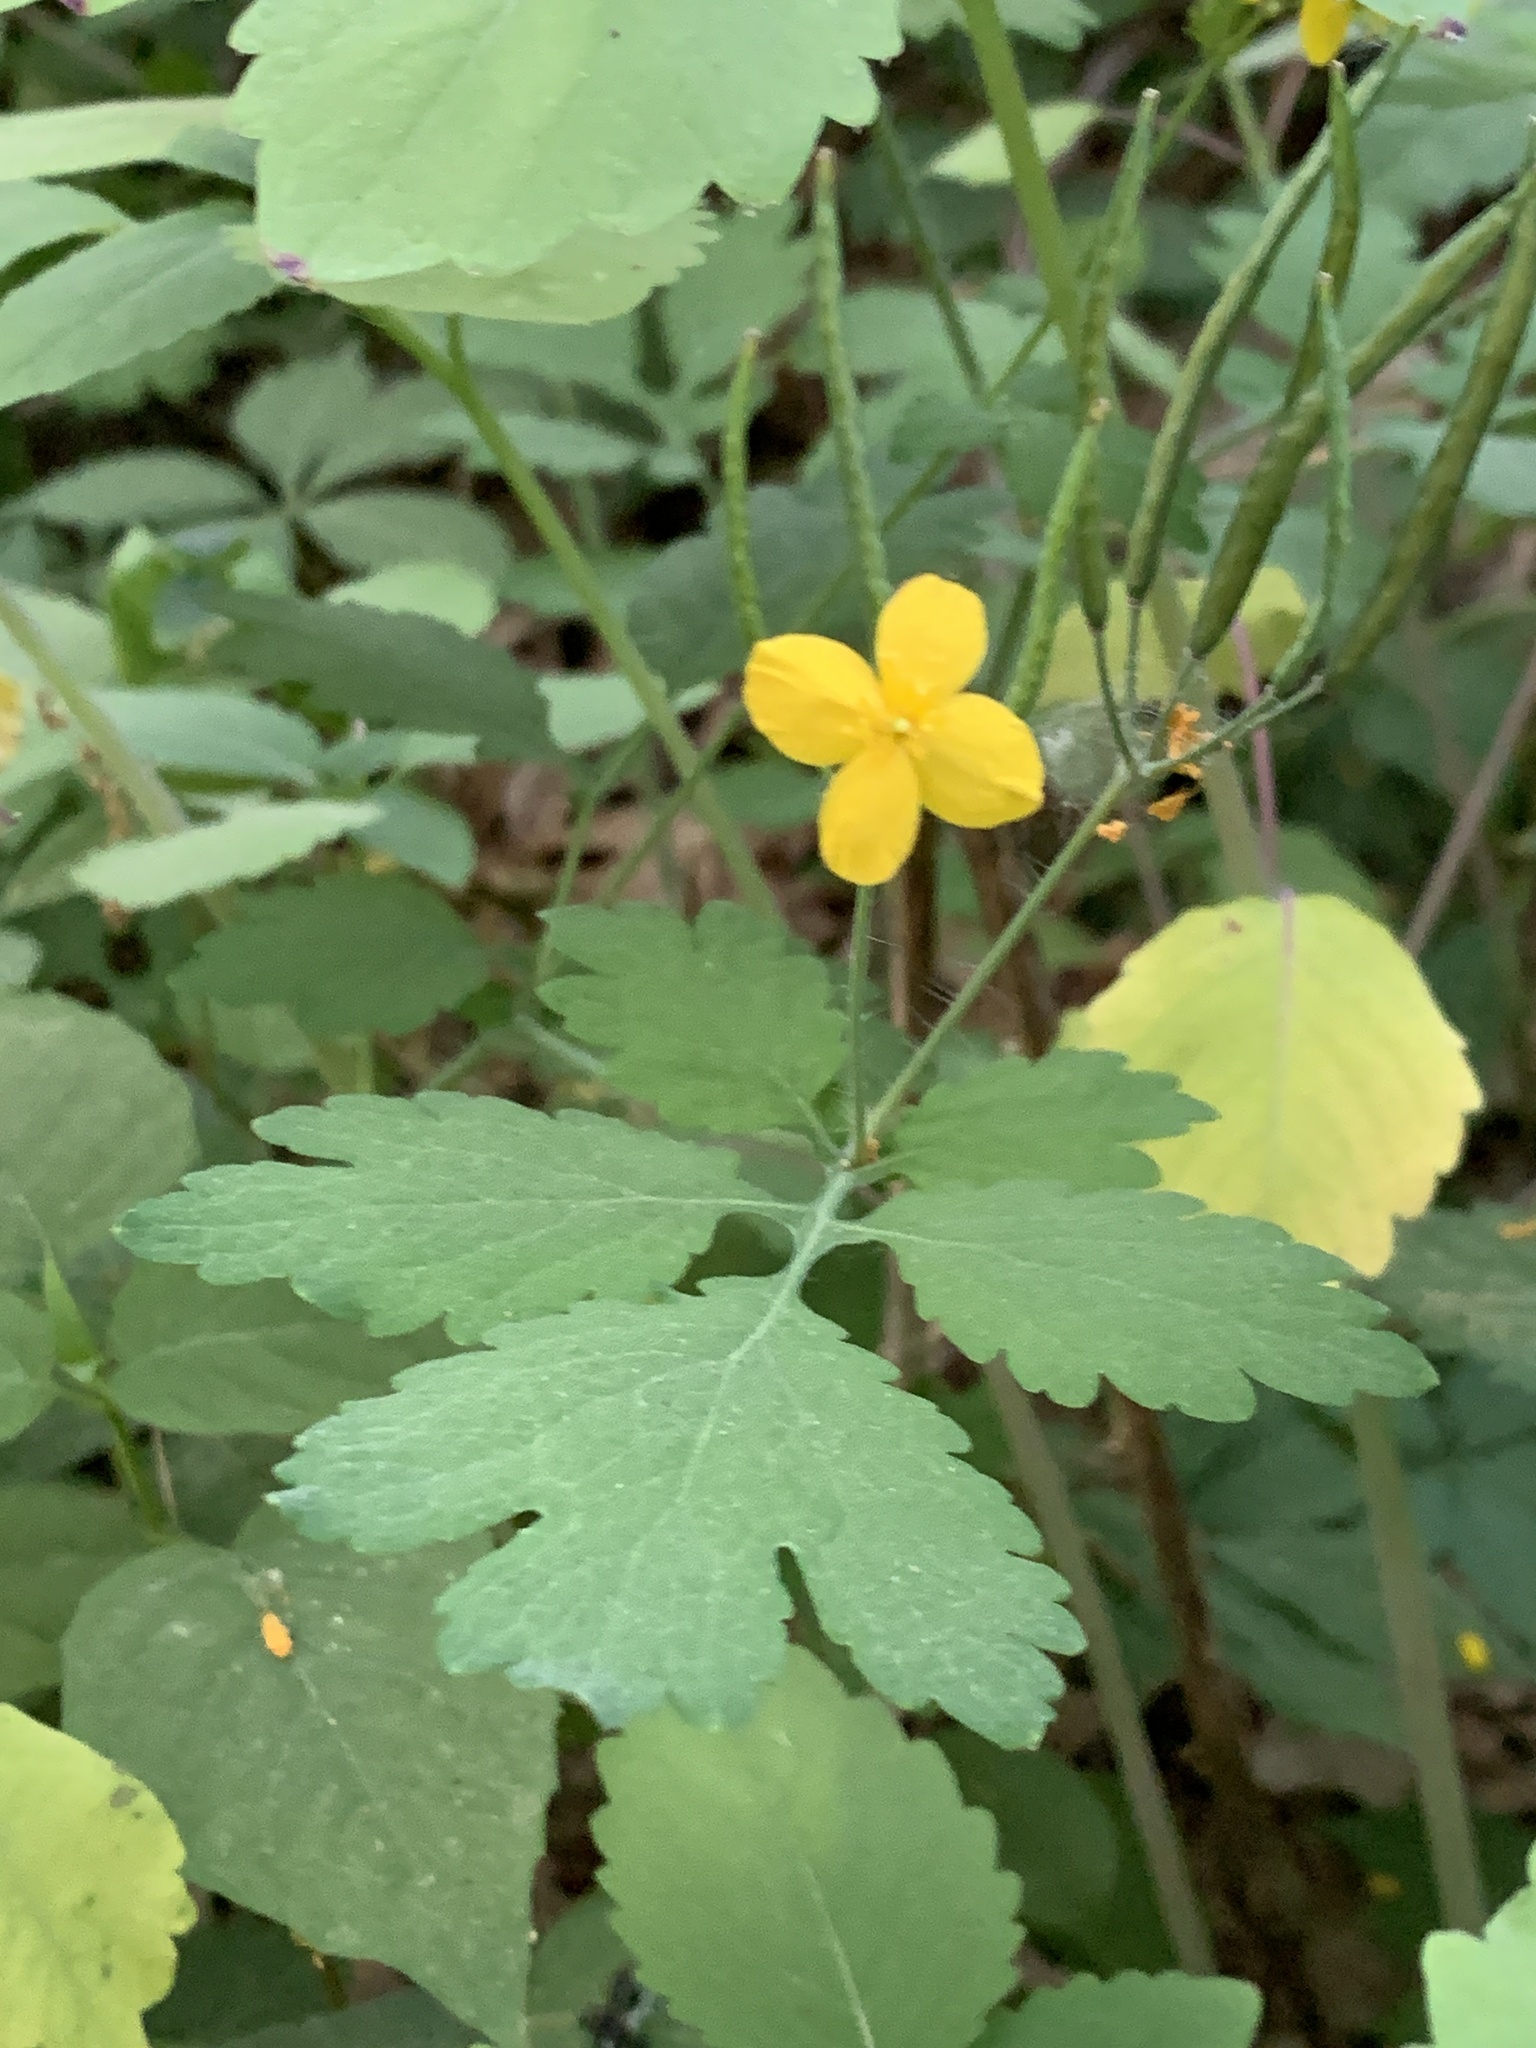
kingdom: Plantae
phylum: Tracheophyta
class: Magnoliopsida
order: Ranunculales
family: Papaveraceae
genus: Chelidonium
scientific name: Chelidonium majus
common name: Greater celandine
